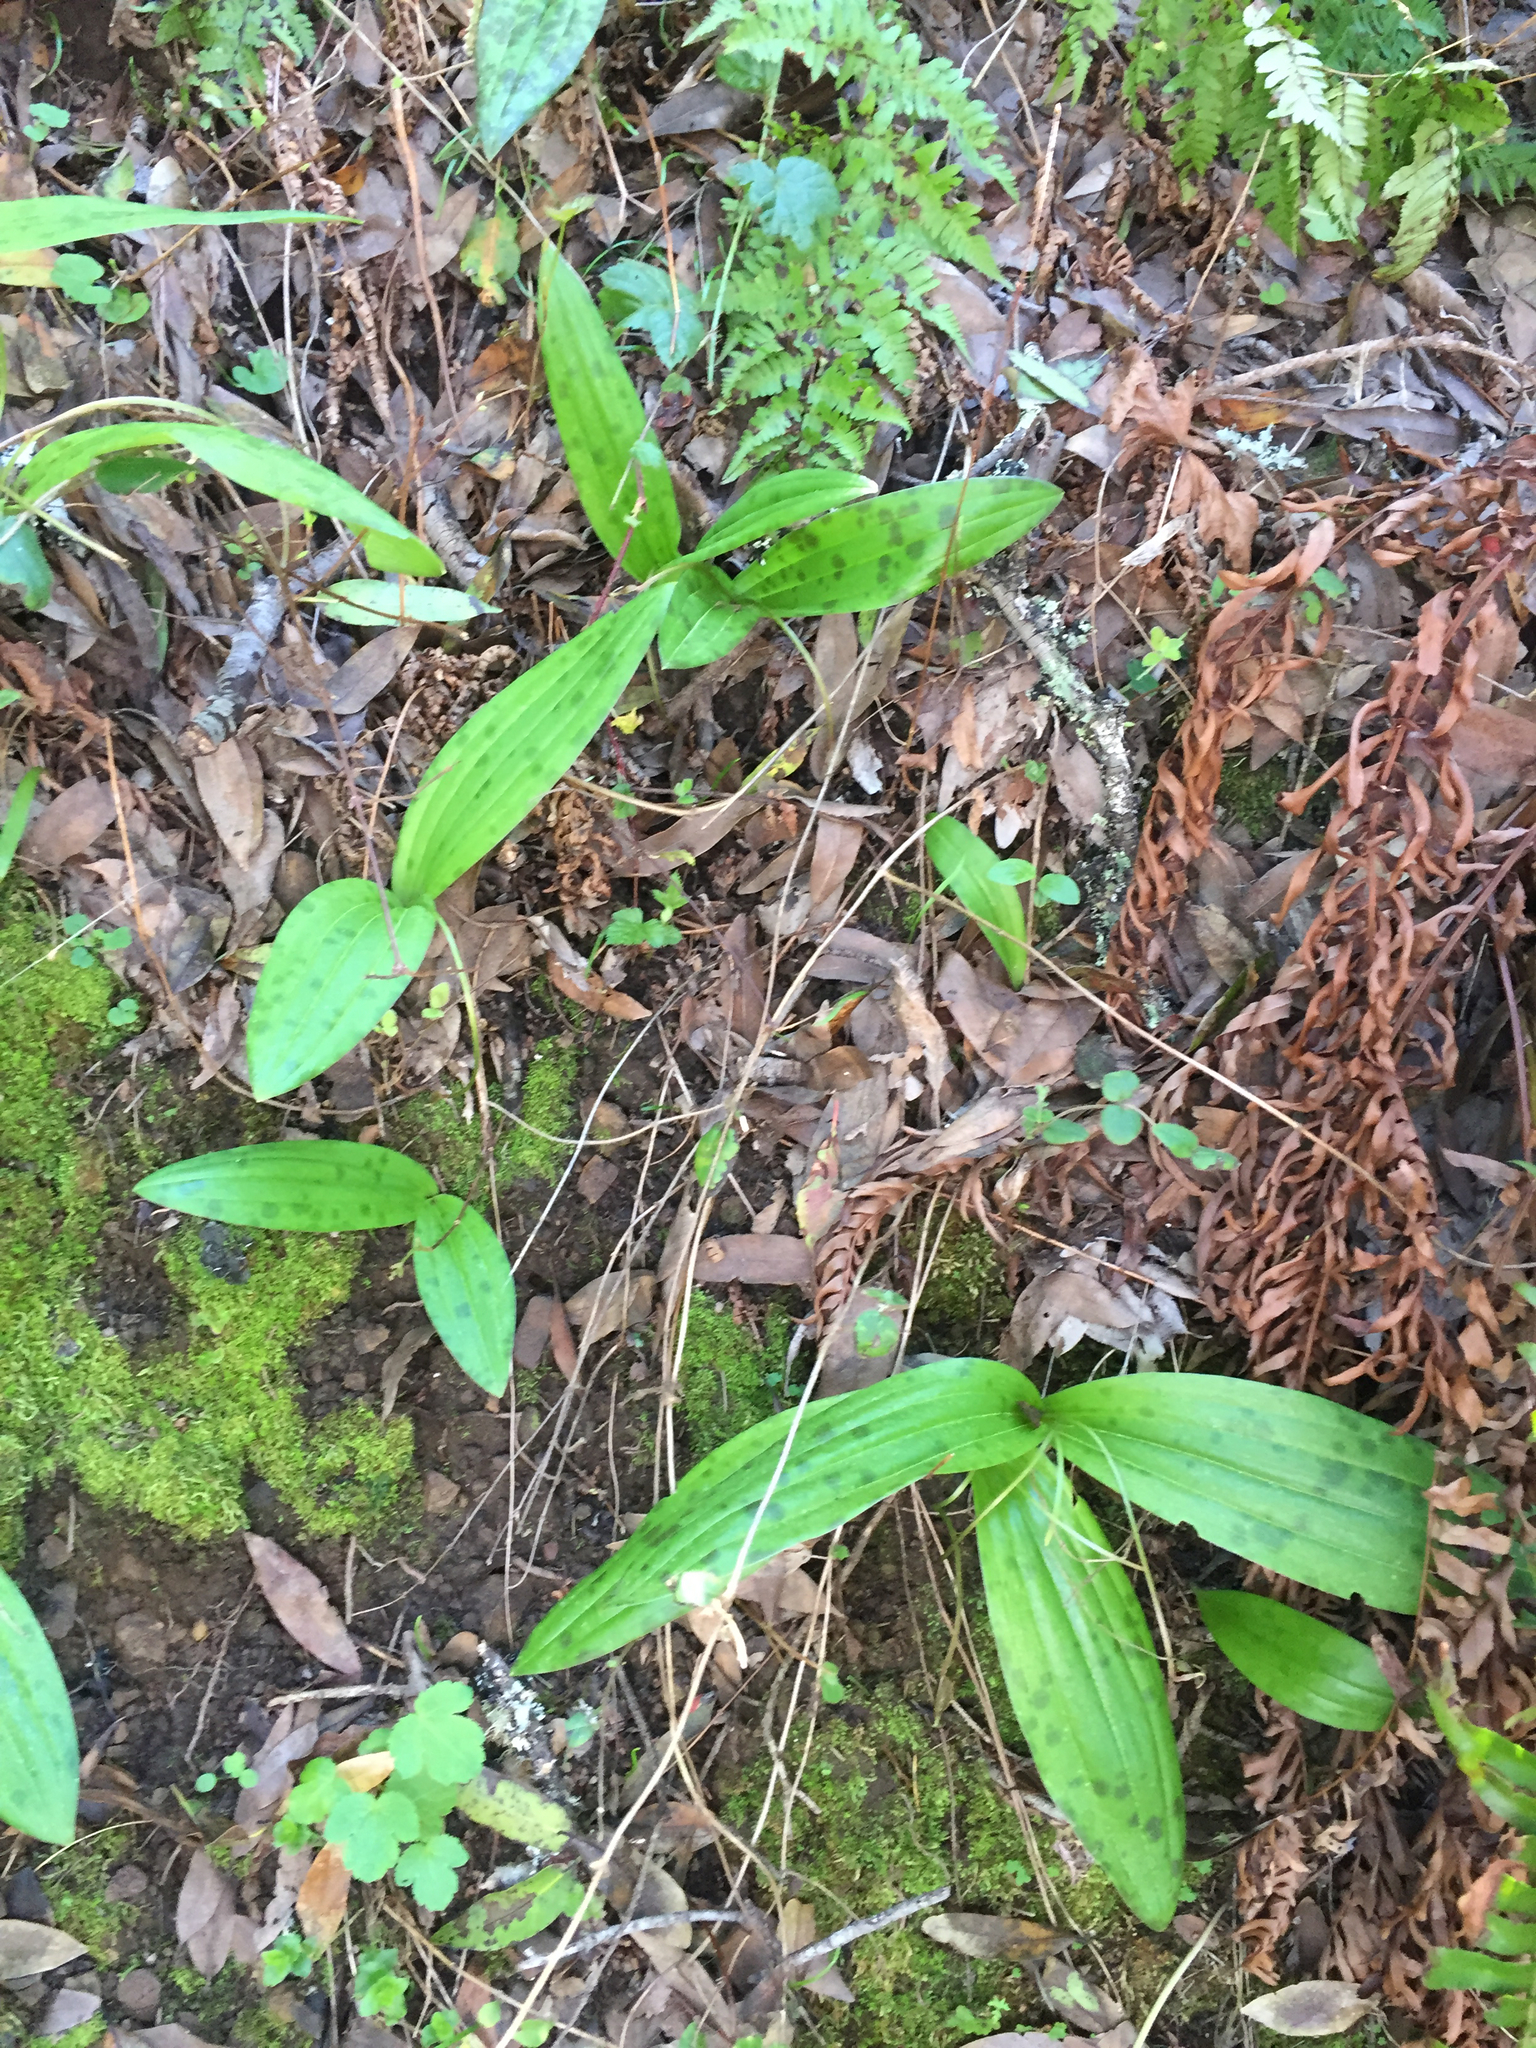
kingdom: Plantae
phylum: Tracheophyta
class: Liliopsida
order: Liliales
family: Liliaceae
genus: Scoliopus
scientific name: Scoliopus bigelovii
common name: Foetid adder's-tongue
